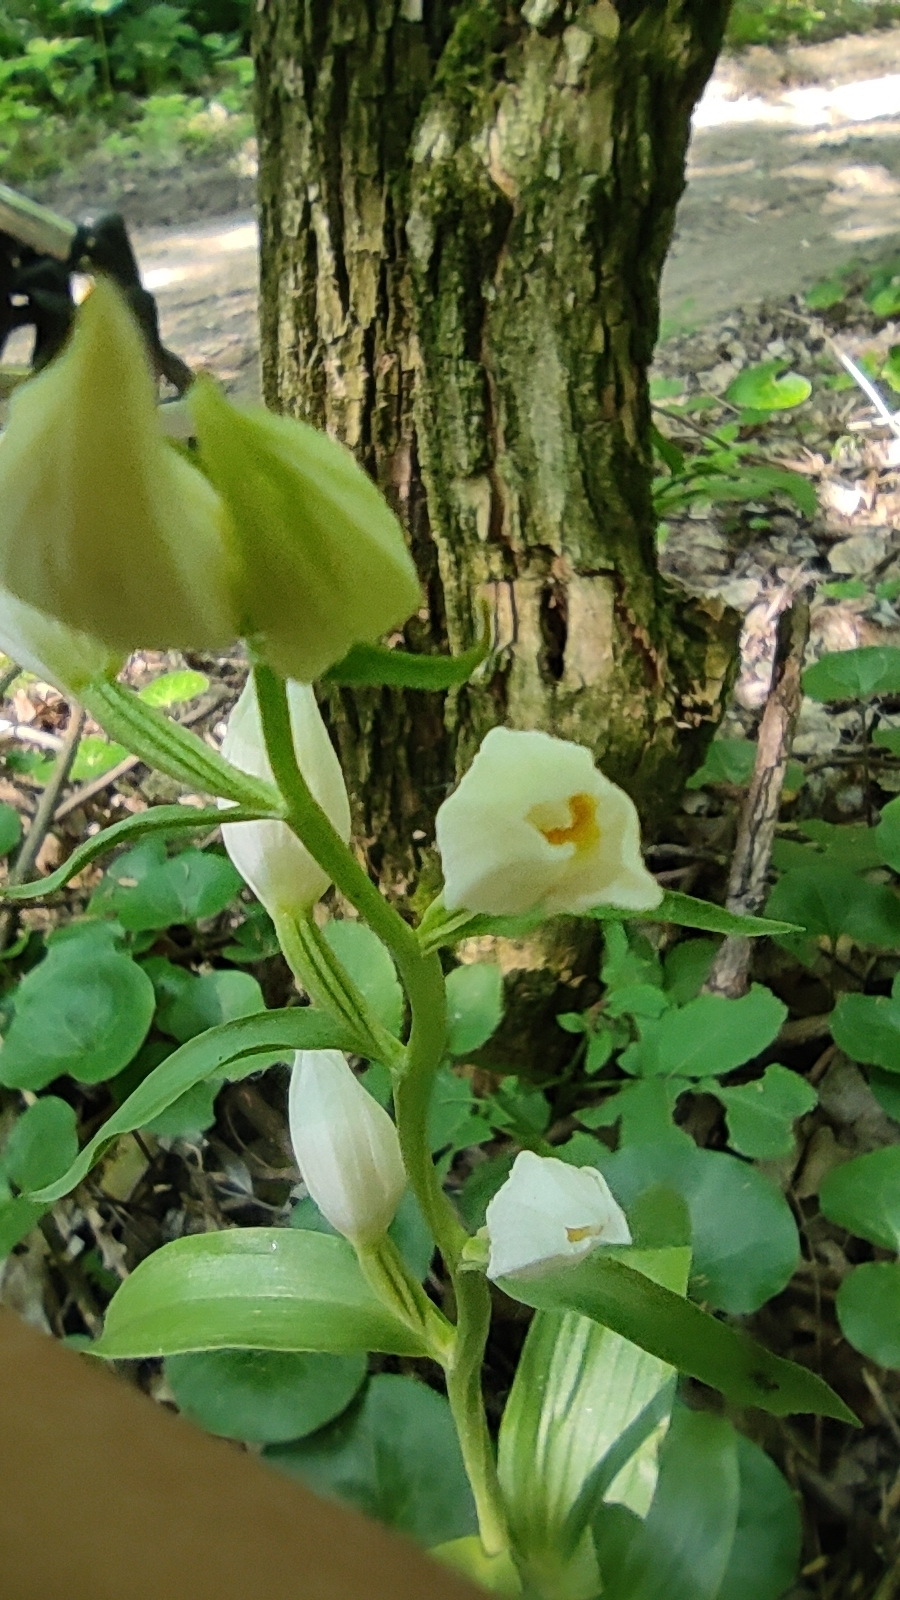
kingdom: Plantae
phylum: Tracheophyta
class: Liliopsida
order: Asparagales
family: Orchidaceae
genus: Cephalanthera
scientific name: Cephalanthera damasonium
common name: White helleborine
